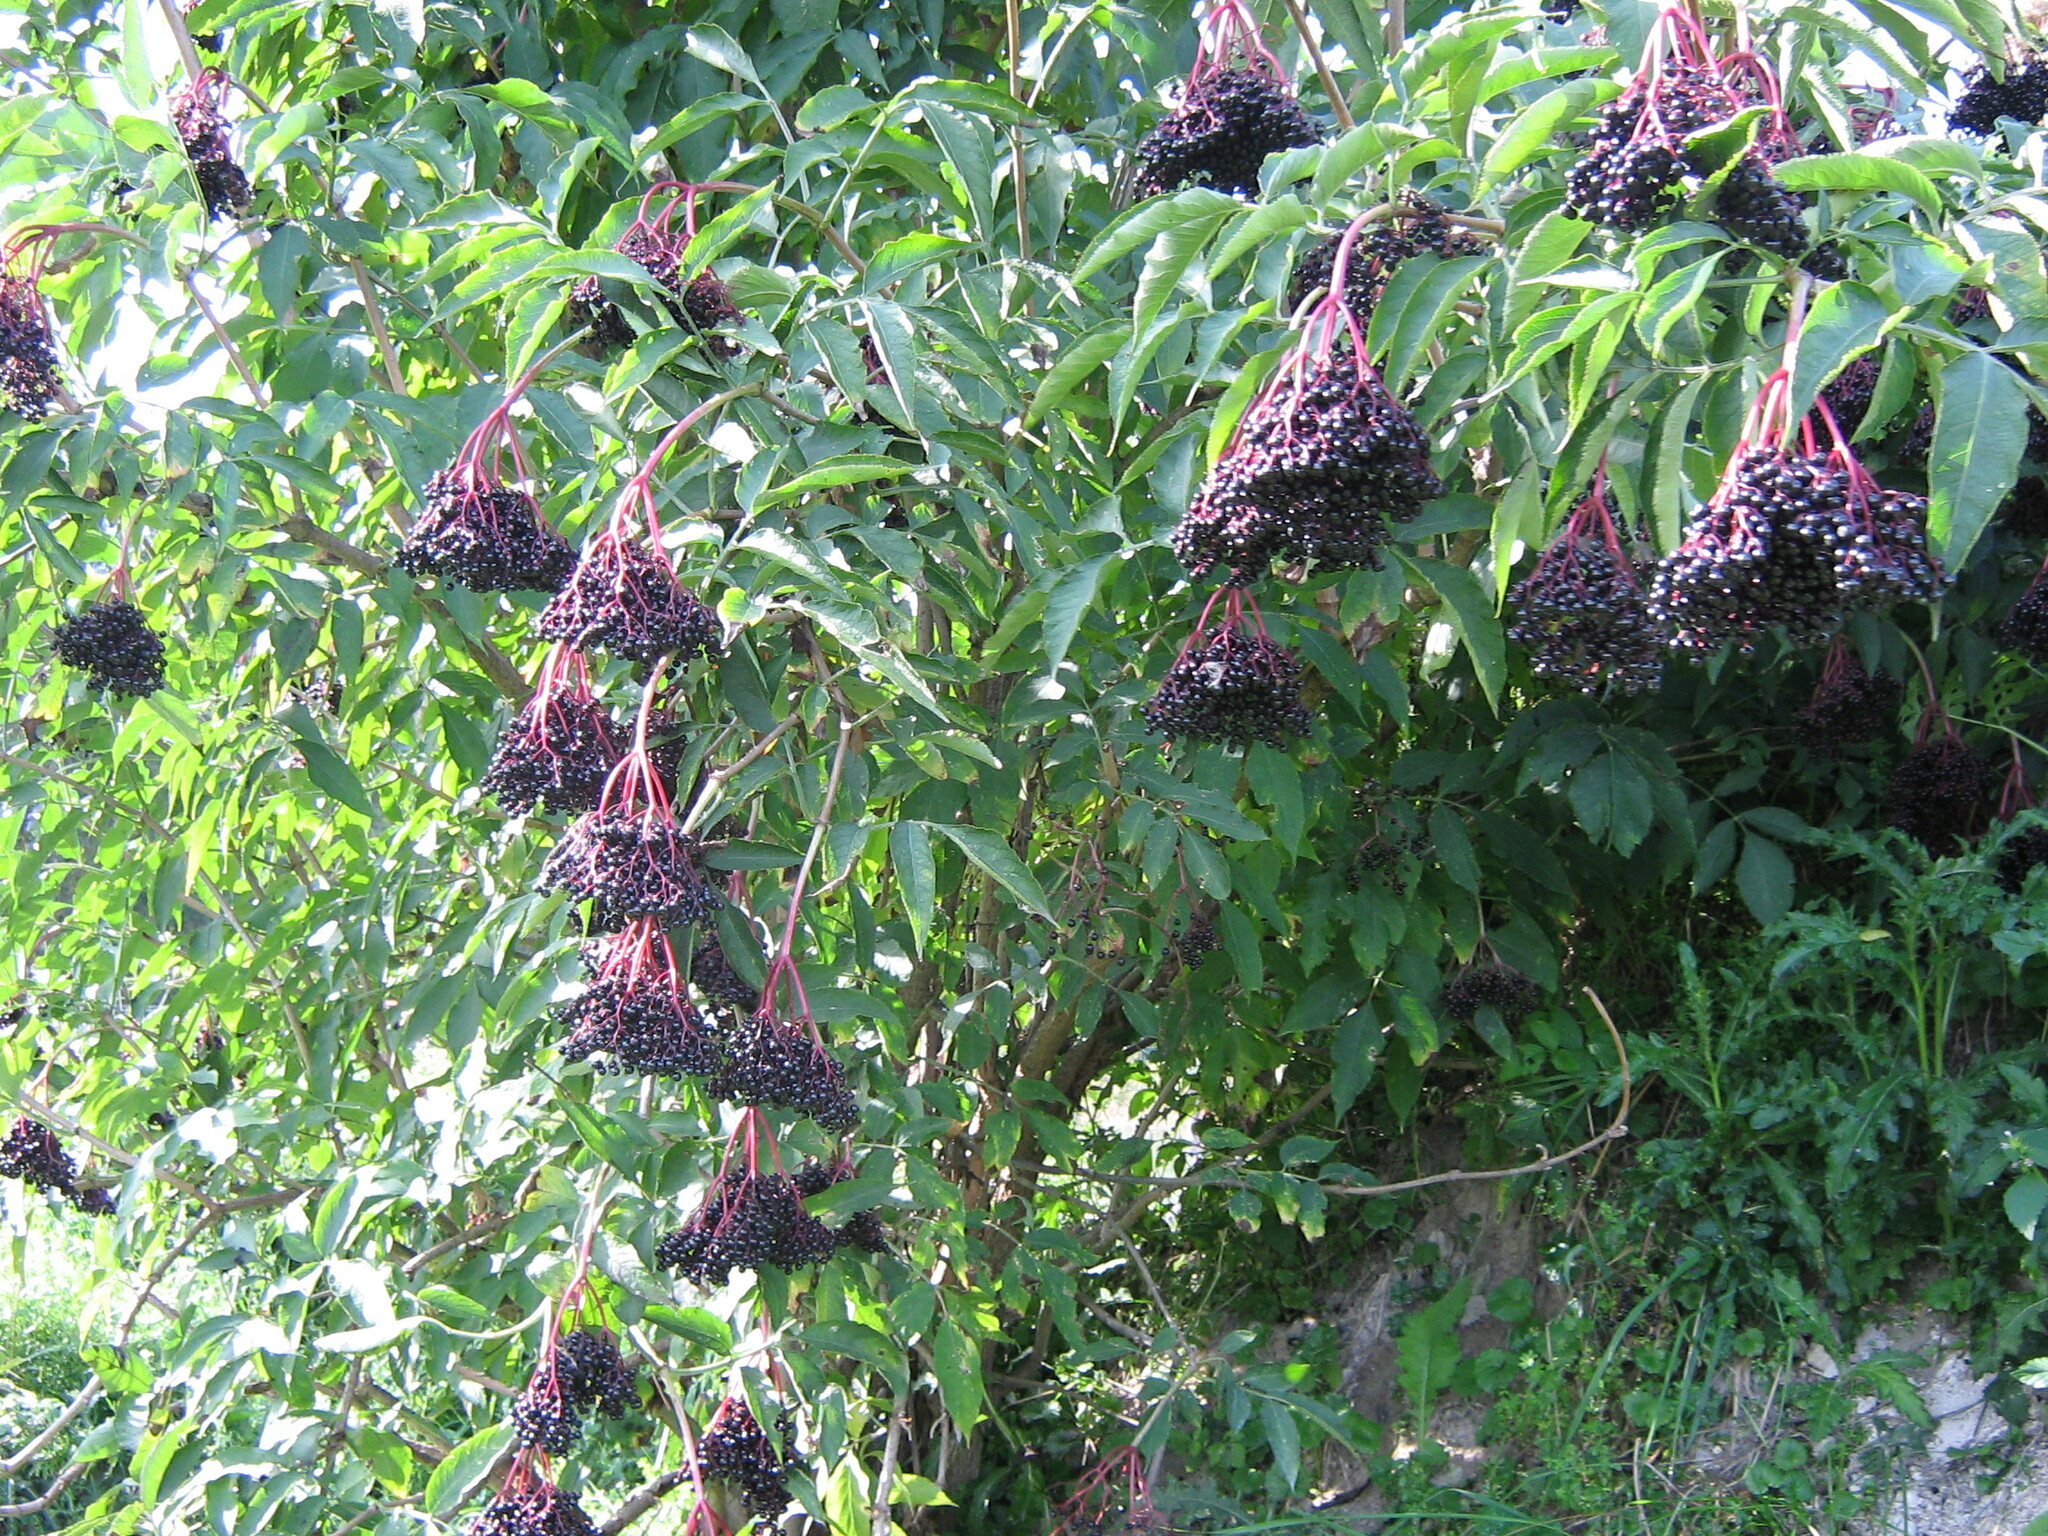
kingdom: Plantae
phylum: Tracheophyta
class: Magnoliopsida
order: Dipsacales
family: Viburnaceae
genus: Sambucus
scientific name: Sambucus nigra
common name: Elder
